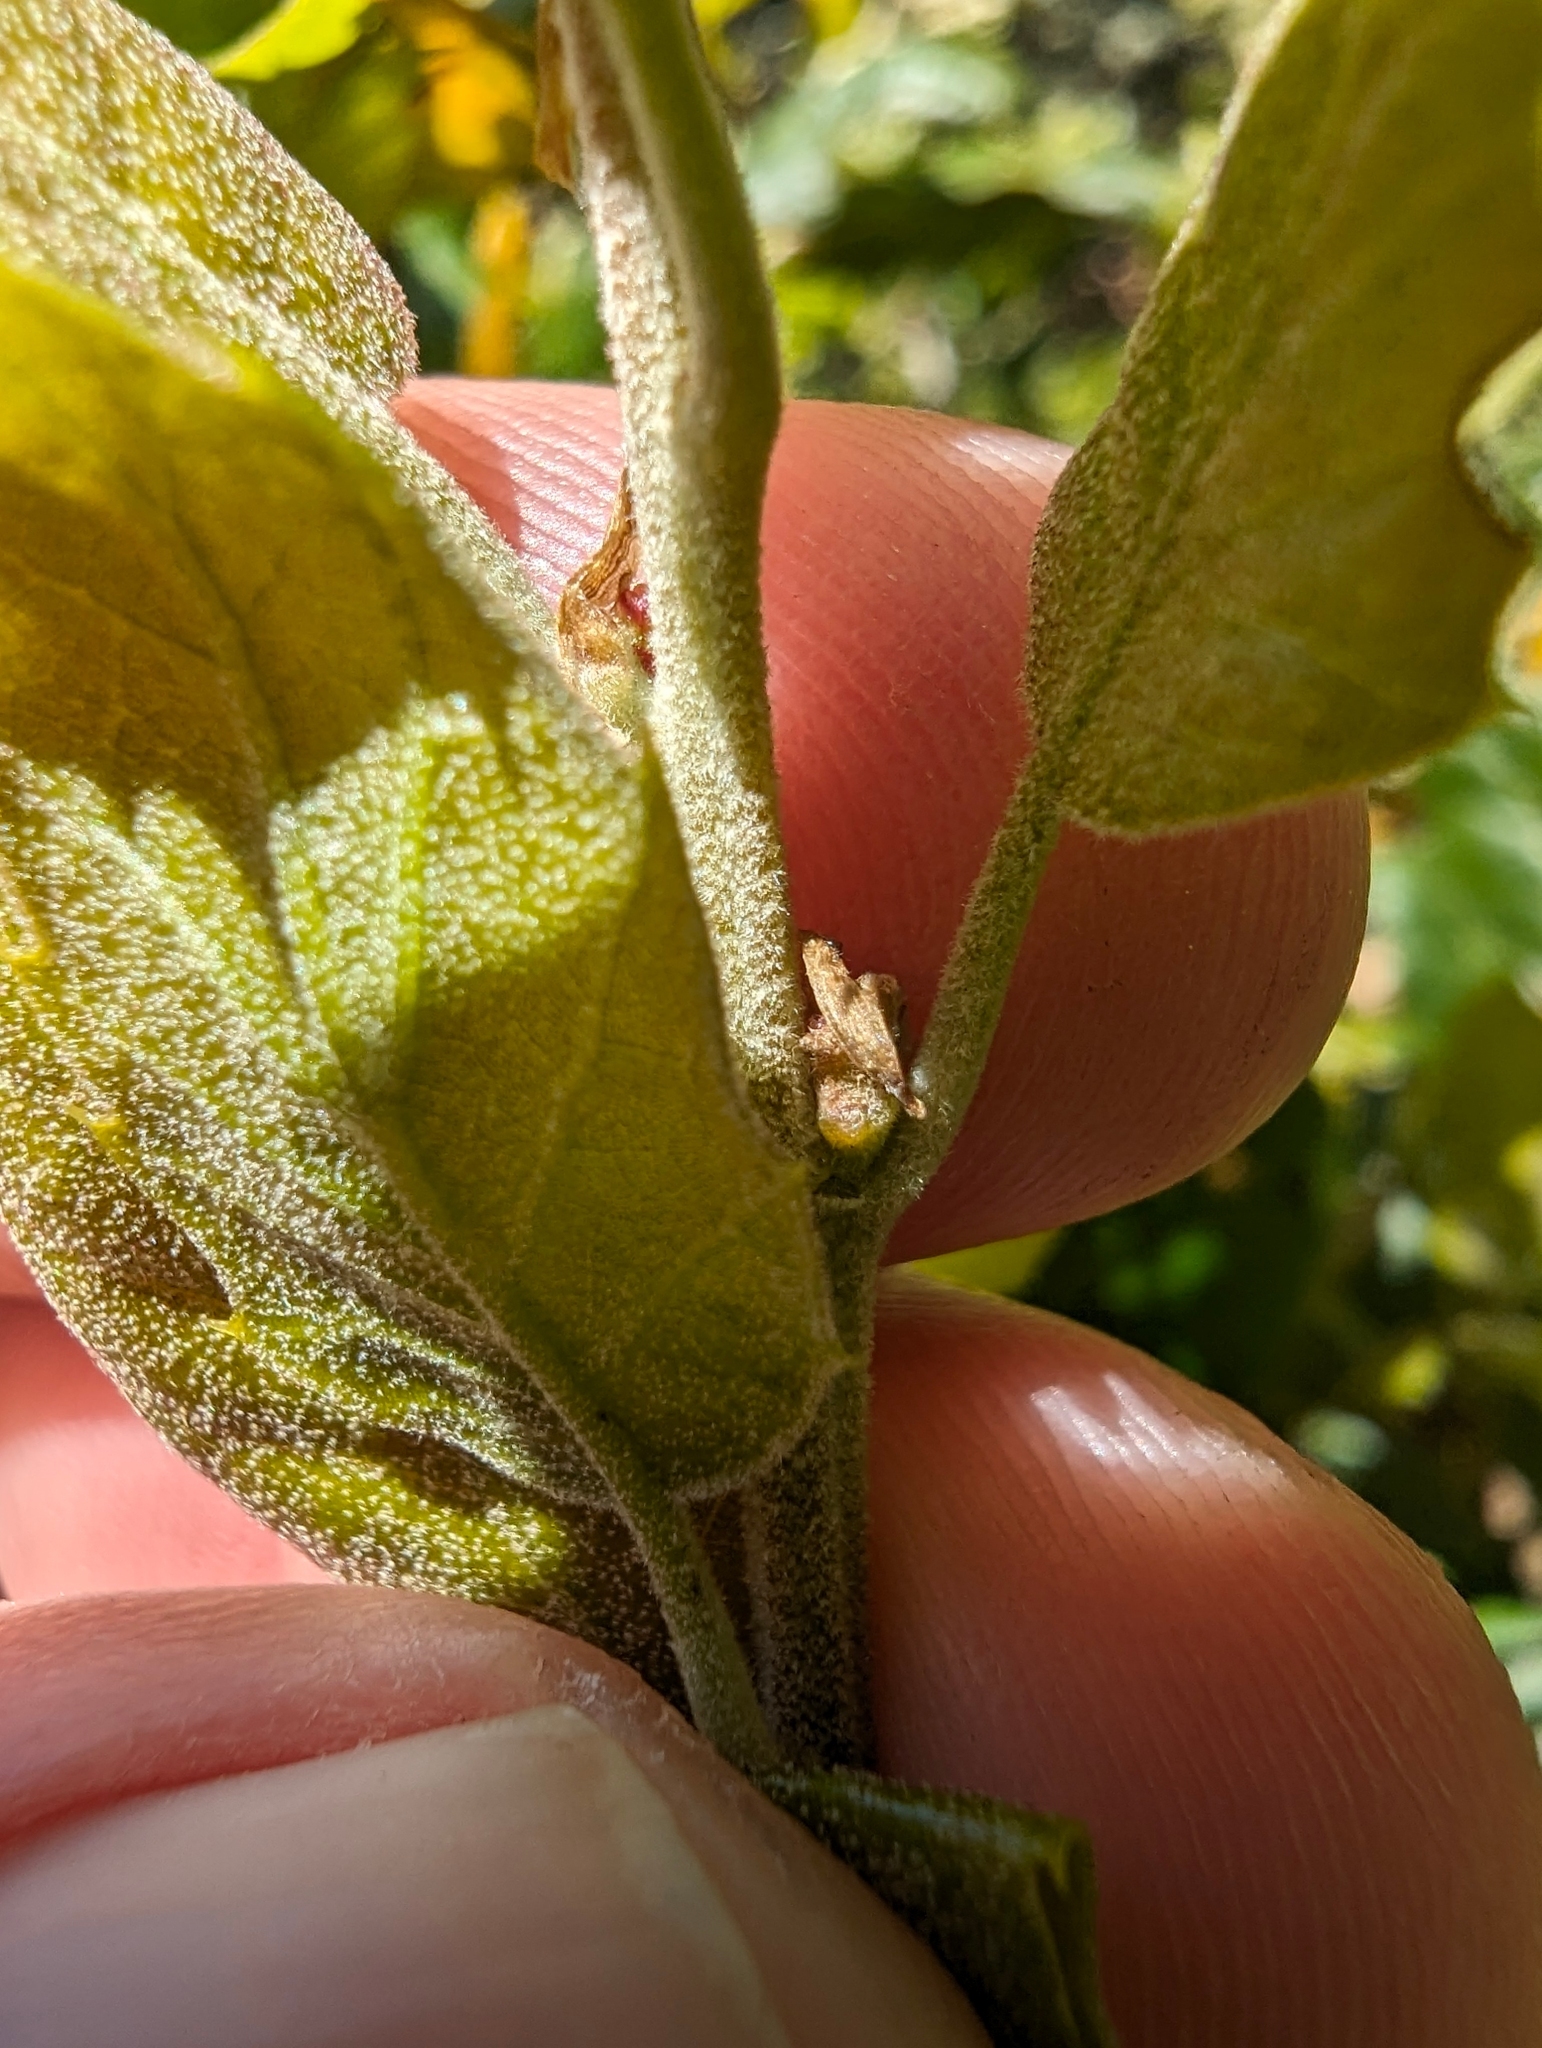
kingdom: Plantae
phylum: Tracheophyta
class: Magnoliopsida
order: Fagales
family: Fagaceae
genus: Quercus
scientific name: Quercus agrifolia
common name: California live oak
